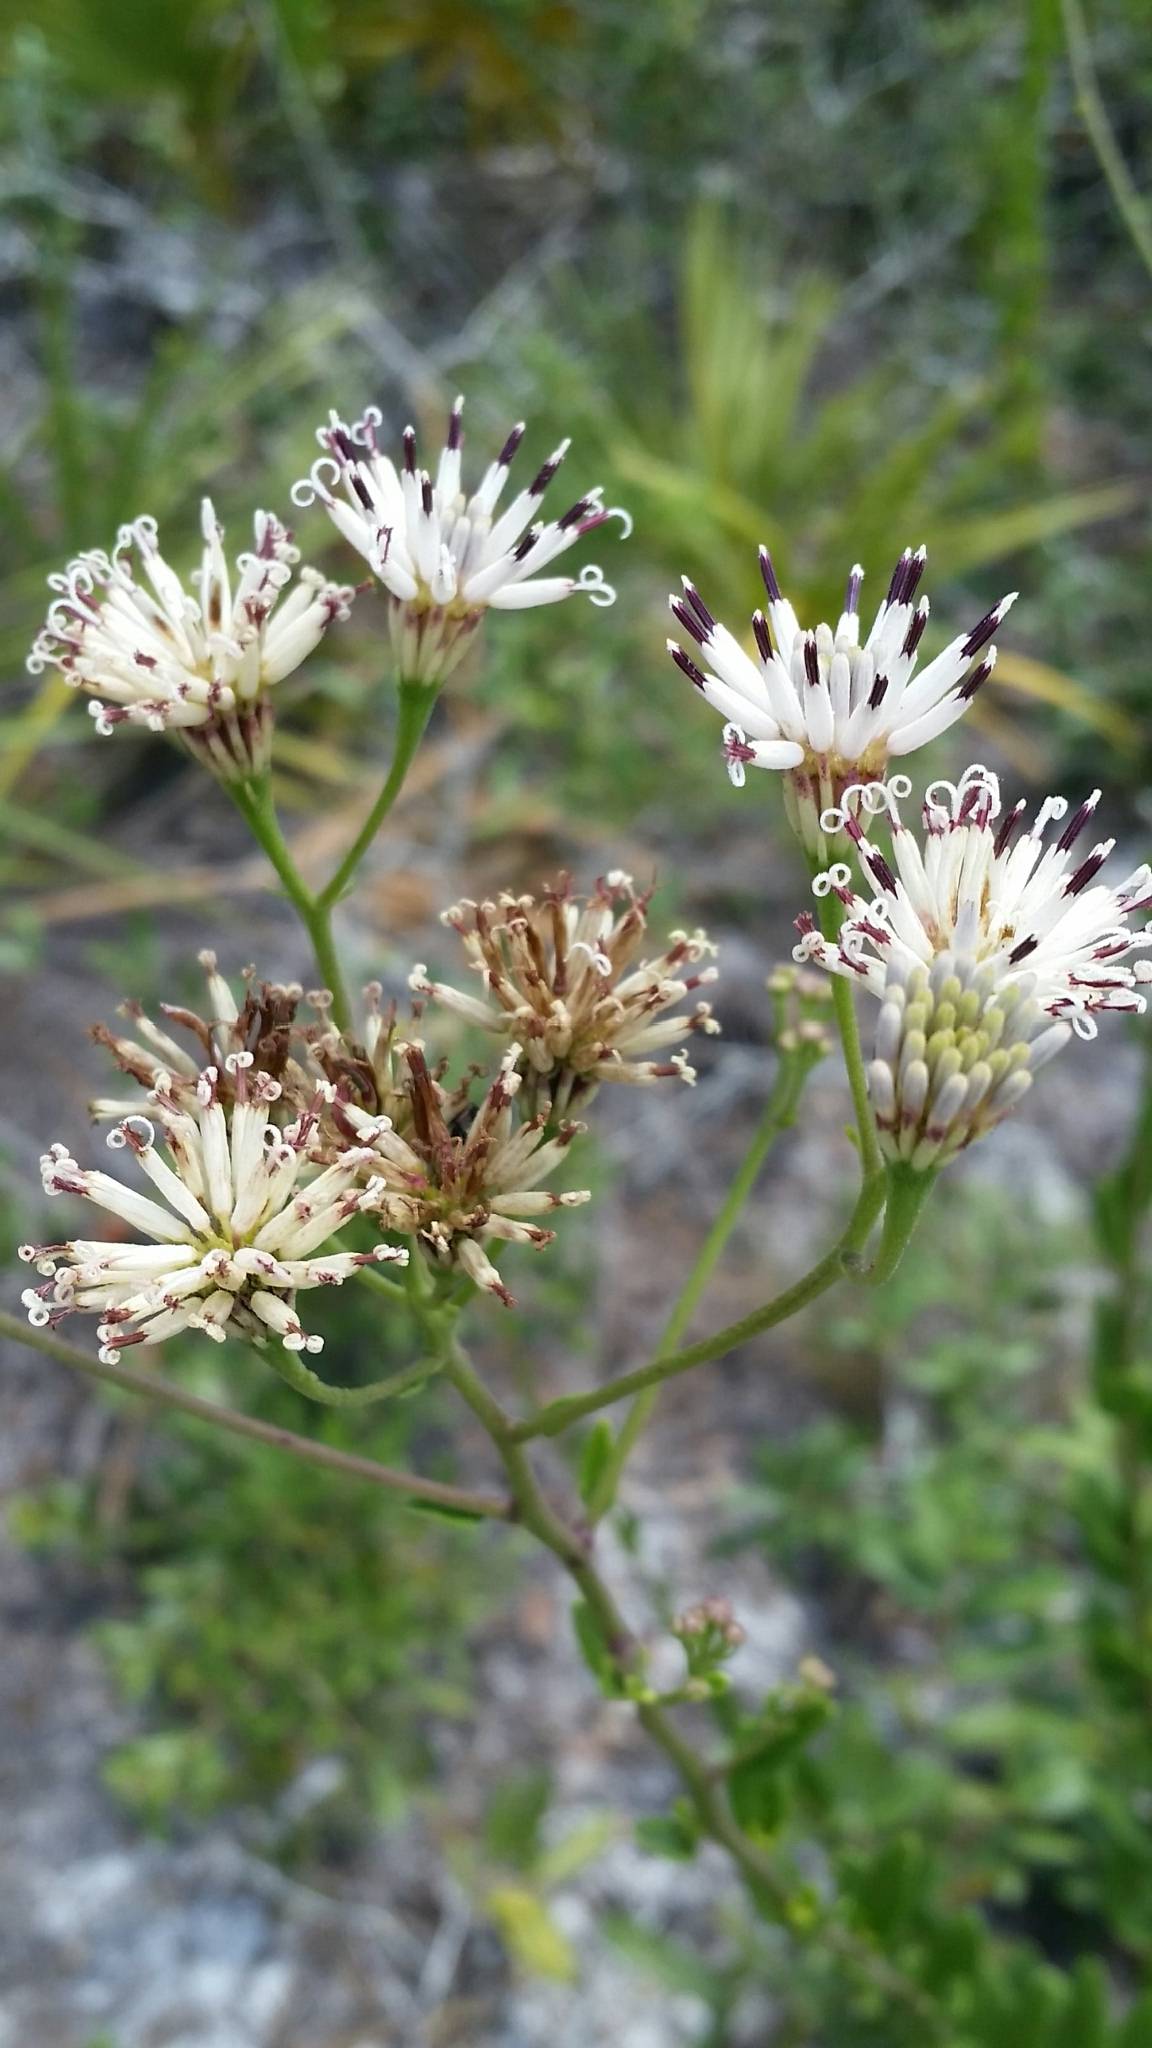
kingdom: Plantae
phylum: Tracheophyta
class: Magnoliopsida
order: Asterales
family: Asteraceae
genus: Palafoxia
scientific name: Palafoxia feayi
